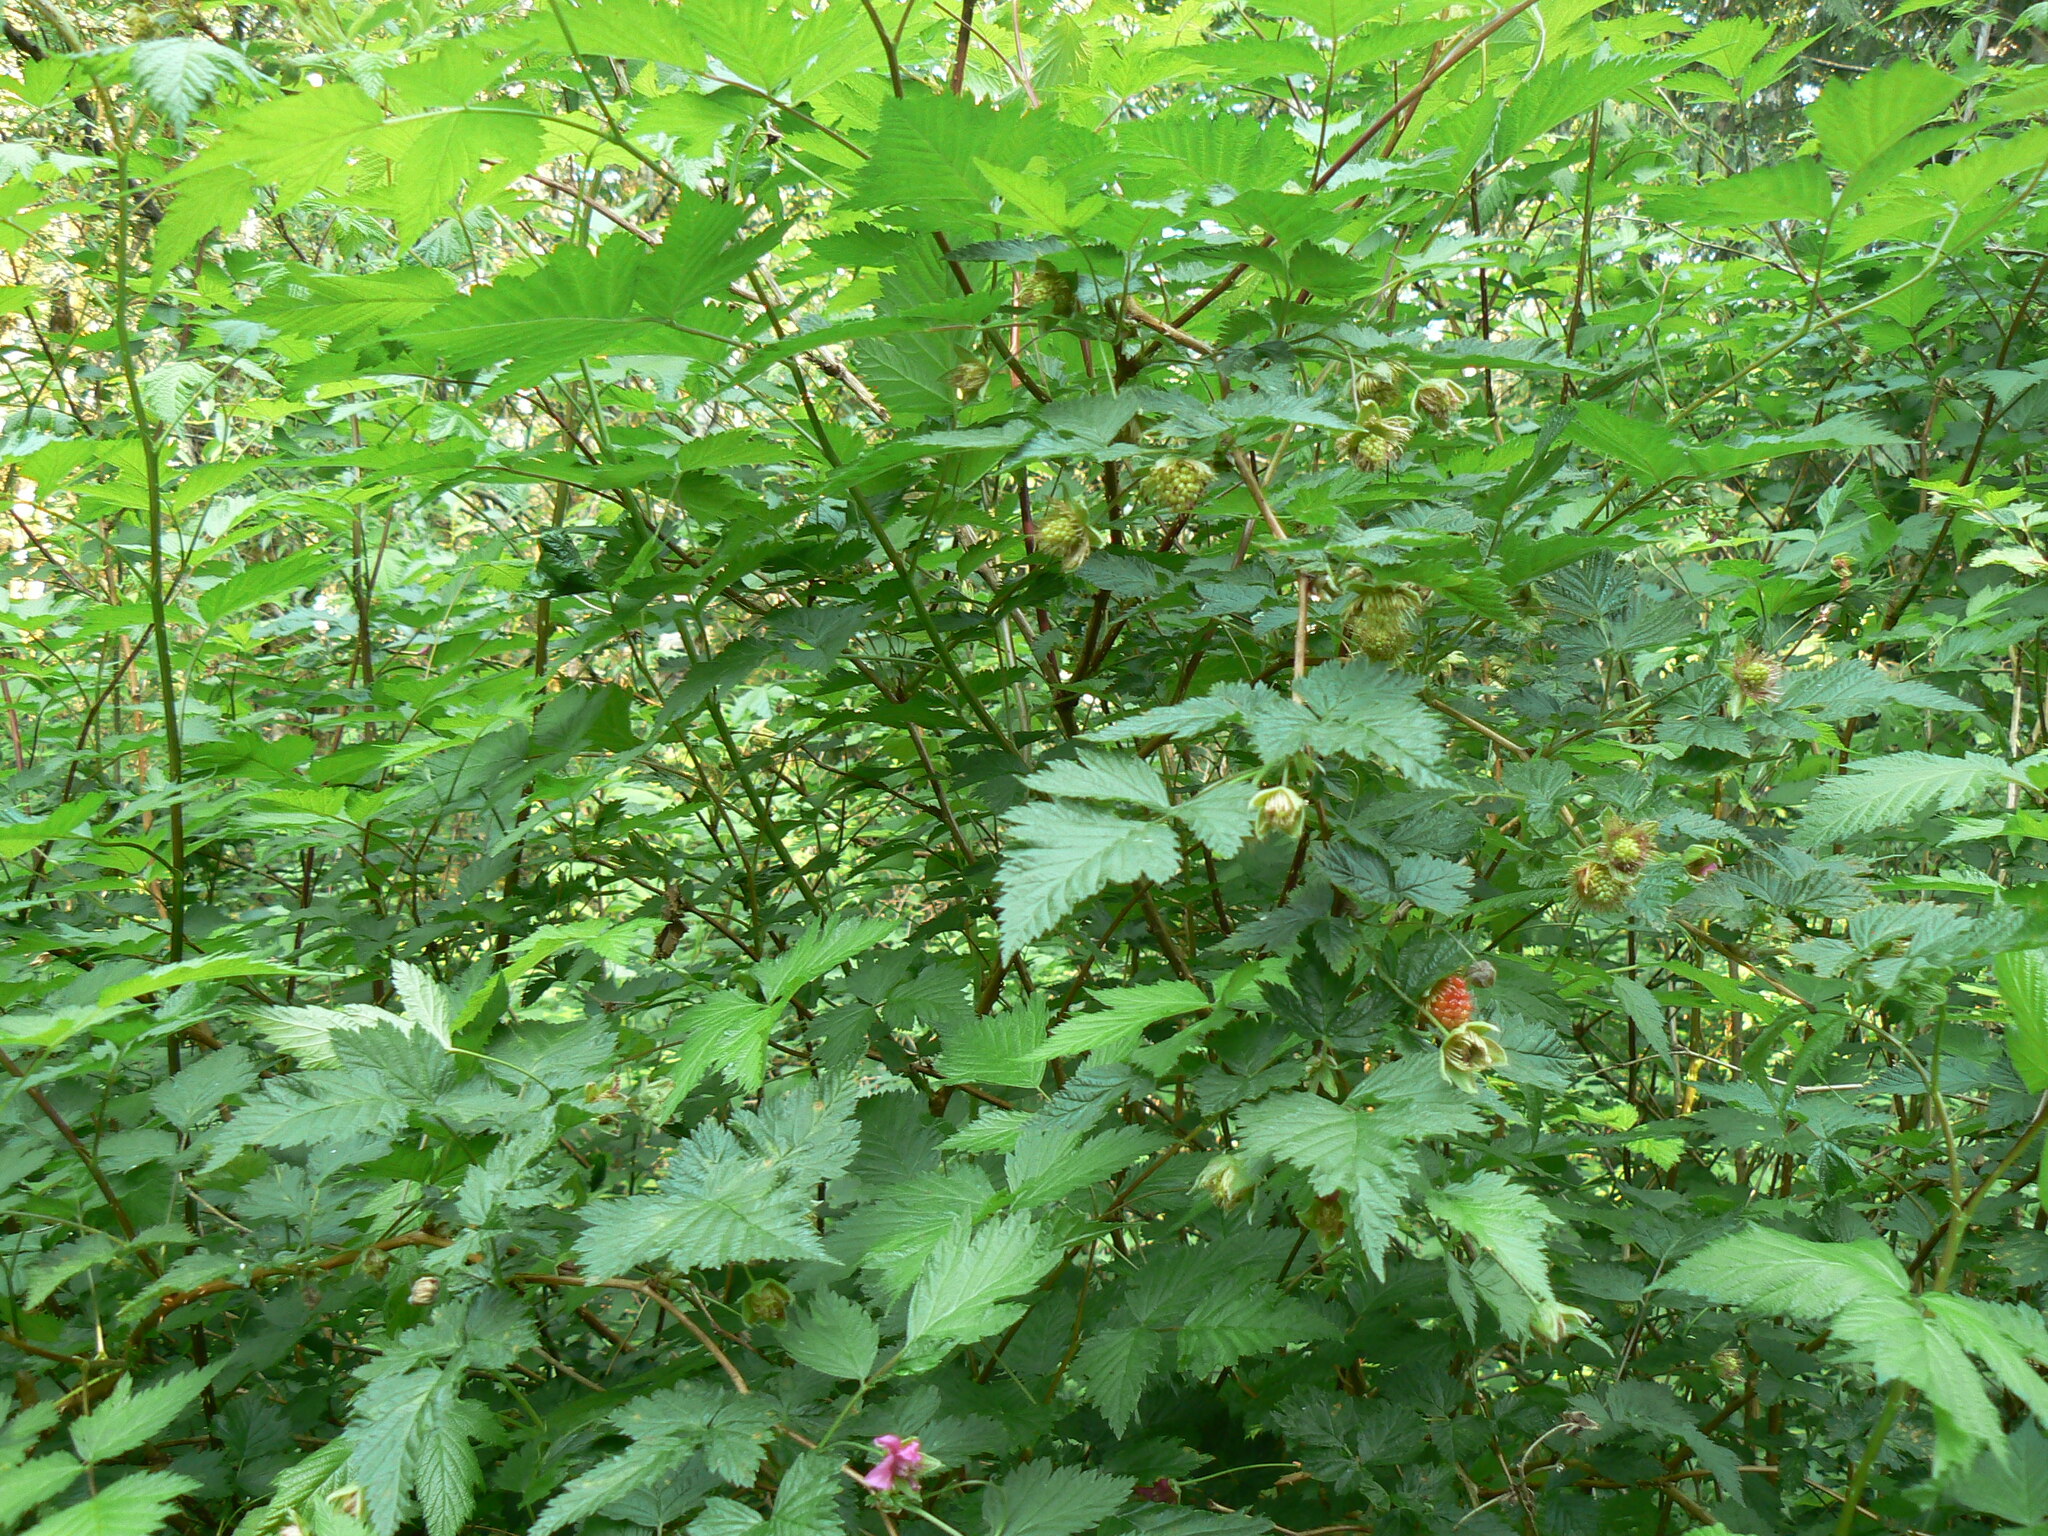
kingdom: Plantae
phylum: Tracheophyta
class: Magnoliopsida
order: Rosales
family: Rosaceae
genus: Rubus
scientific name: Rubus spectabilis
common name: Salmonberry
